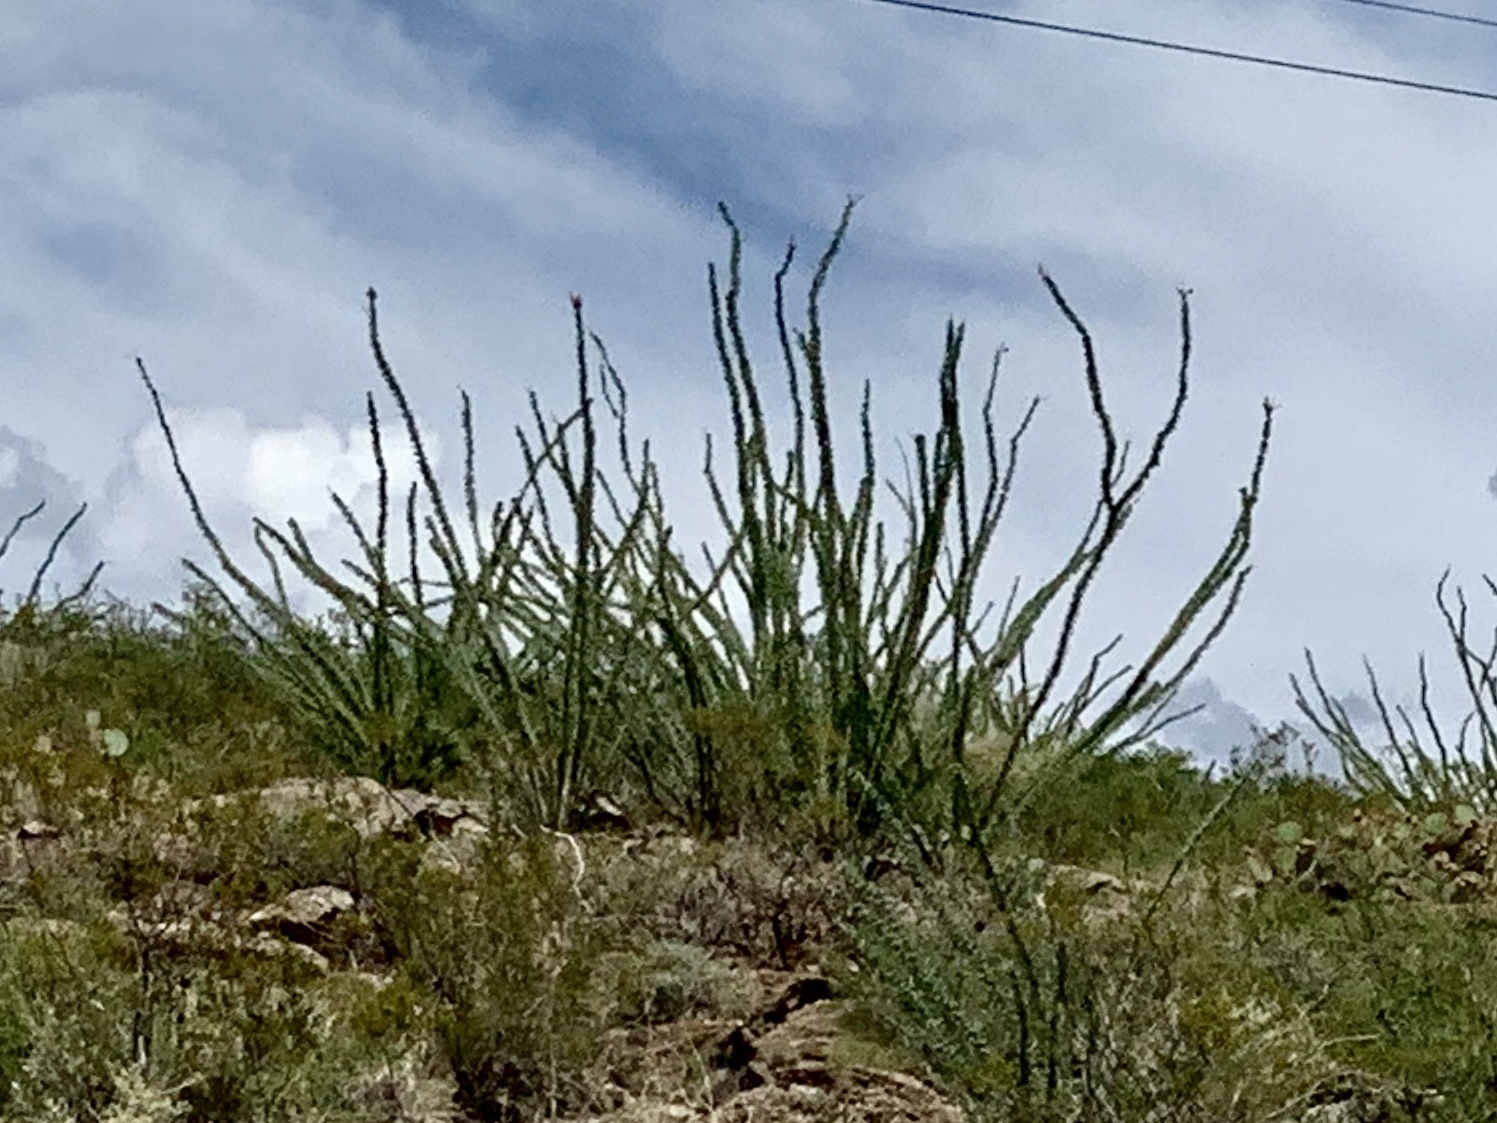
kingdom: Plantae
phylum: Tracheophyta
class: Magnoliopsida
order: Ericales
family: Fouquieriaceae
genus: Fouquieria
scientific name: Fouquieria splendens
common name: Vine-cactus
